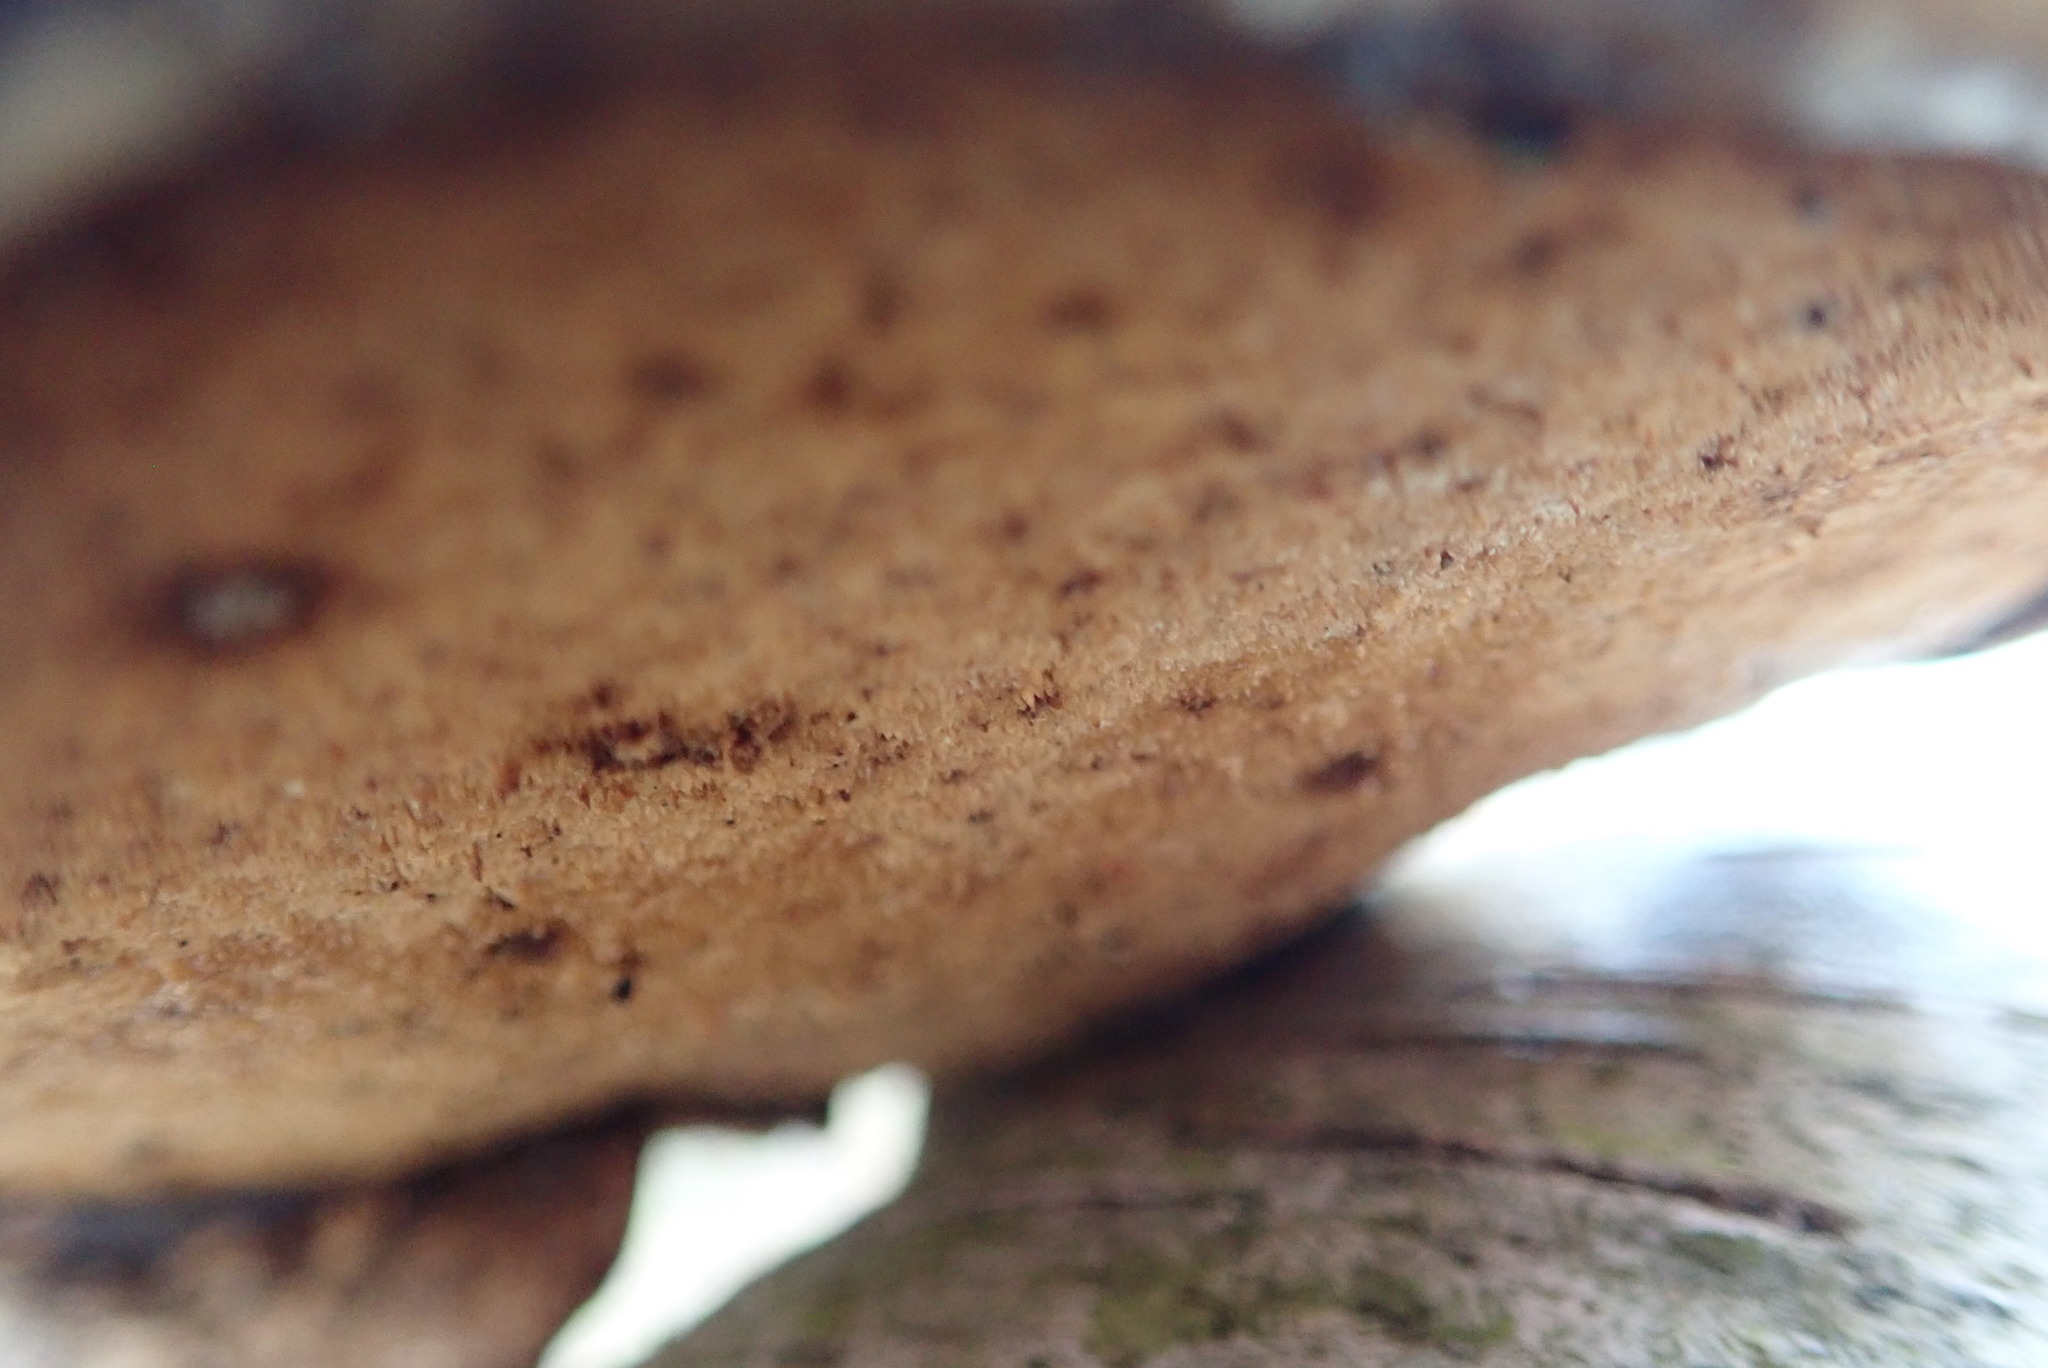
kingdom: Fungi
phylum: Basidiomycota
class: Agaricomycetes
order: Polyporales
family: Fomitopsidaceae
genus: Fomitopsis
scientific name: Fomitopsis betulina
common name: Birch polypore
